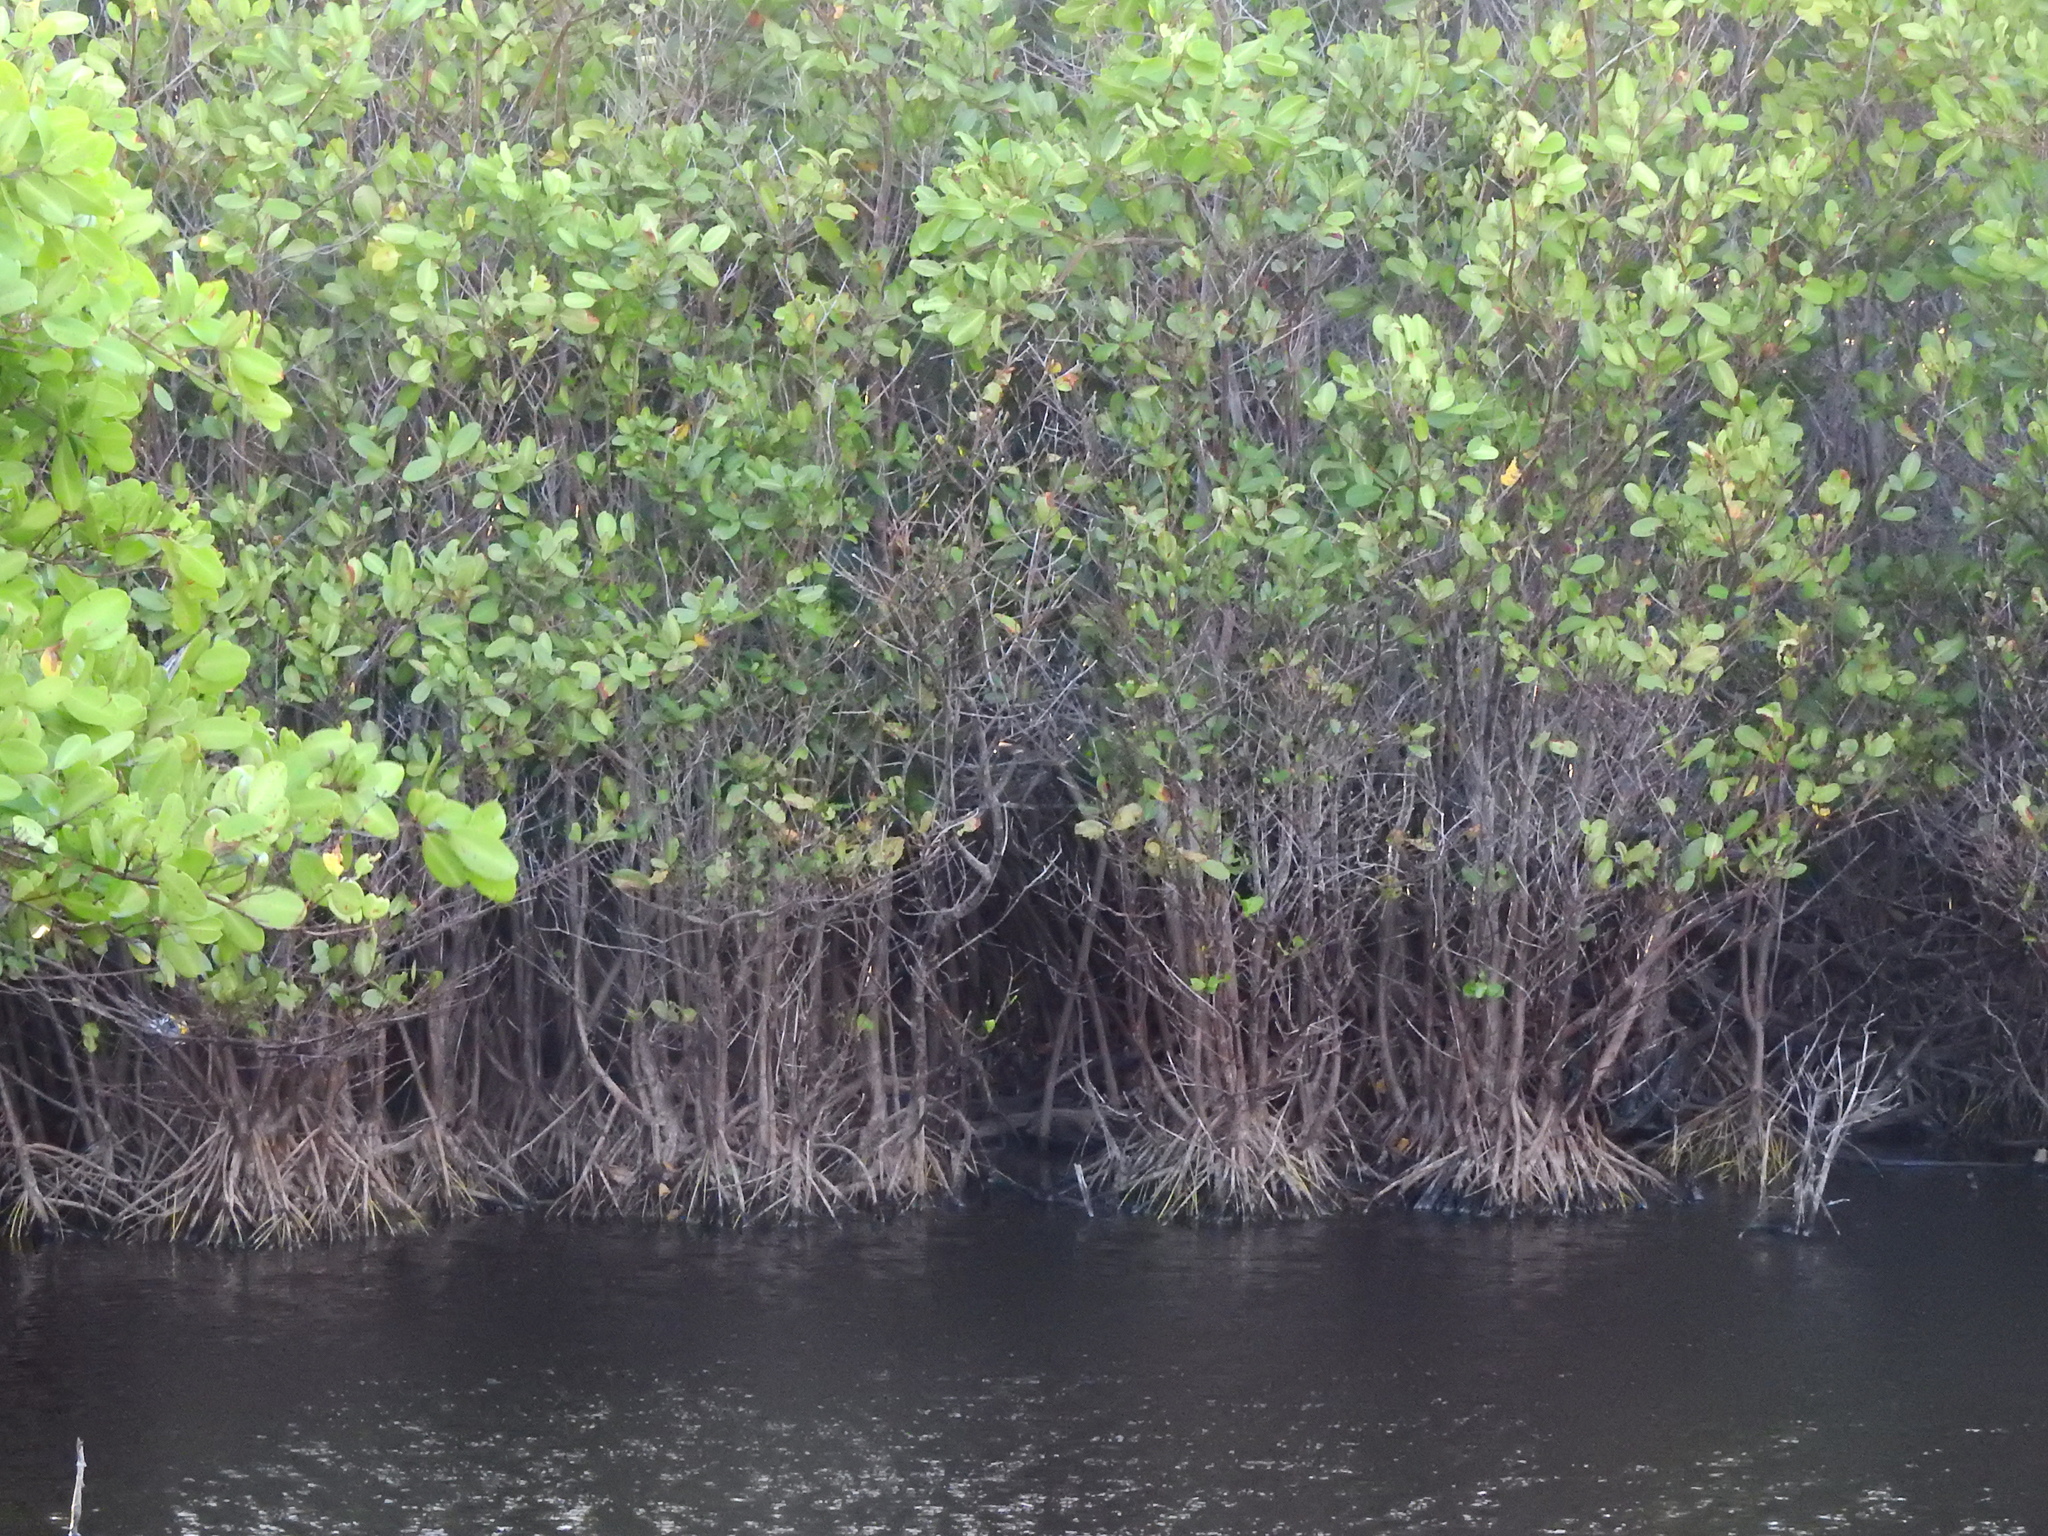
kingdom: Plantae
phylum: Tracheophyta
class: Magnoliopsida
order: Myrtales
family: Combretaceae
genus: Laguncularia
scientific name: Laguncularia racemosa
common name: White mangrove
